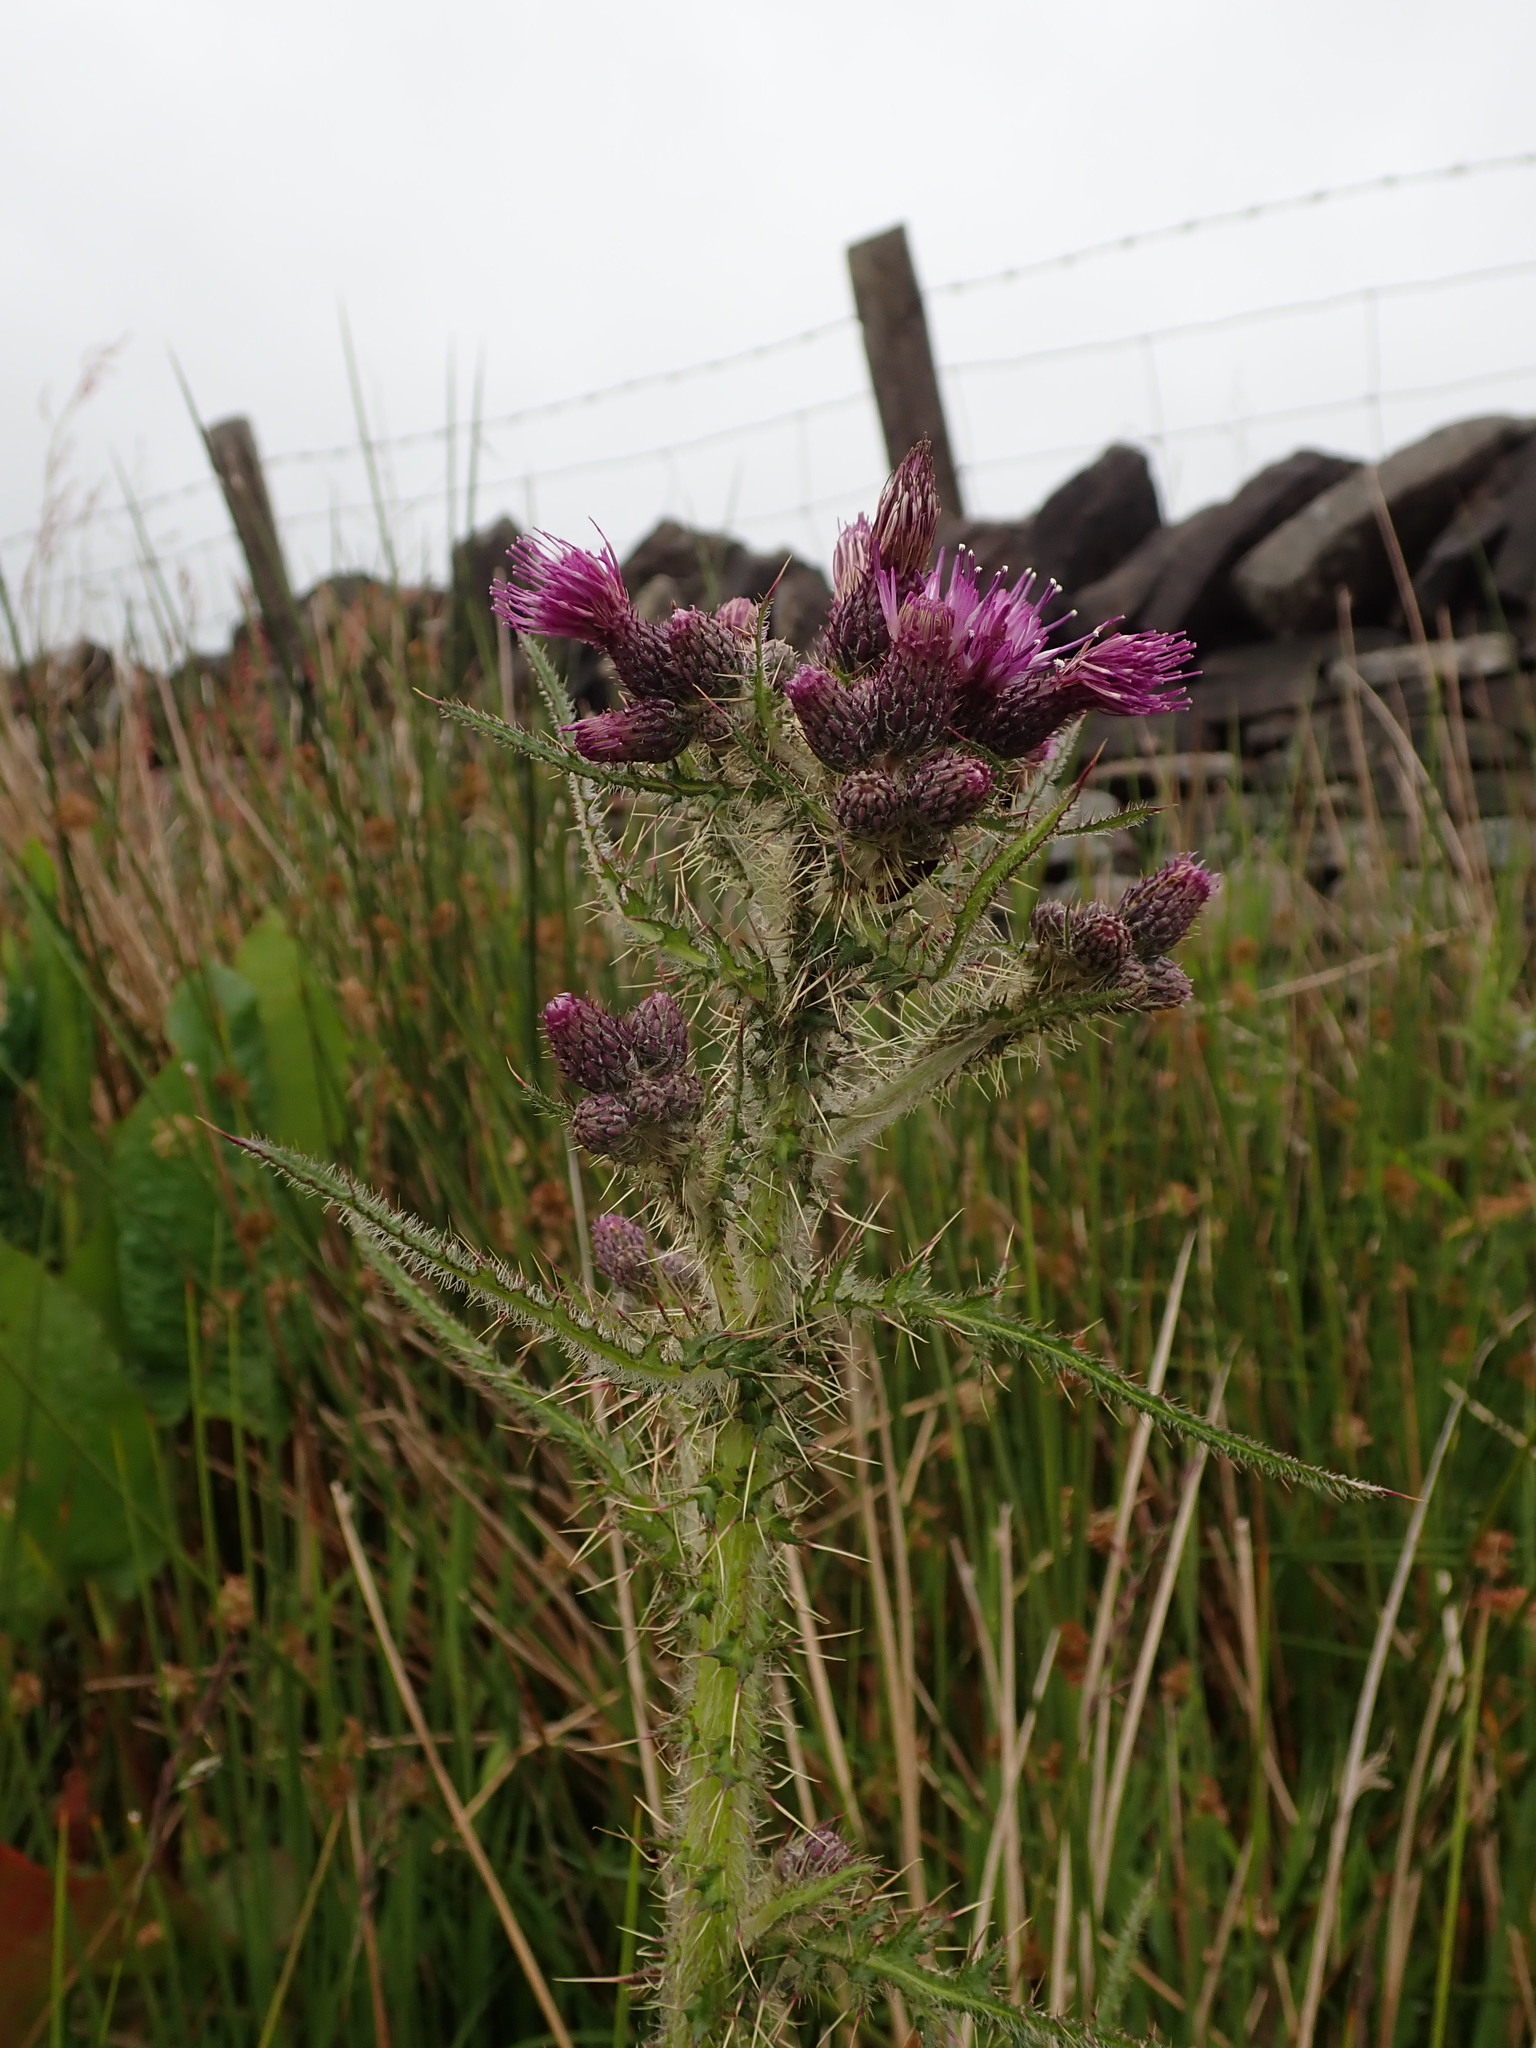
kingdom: Plantae
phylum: Tracheophyta
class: Magnoliopsida
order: Asterales
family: Asteraceae
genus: Cirsium
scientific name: Cirsium palustre
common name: Marsh thistle
